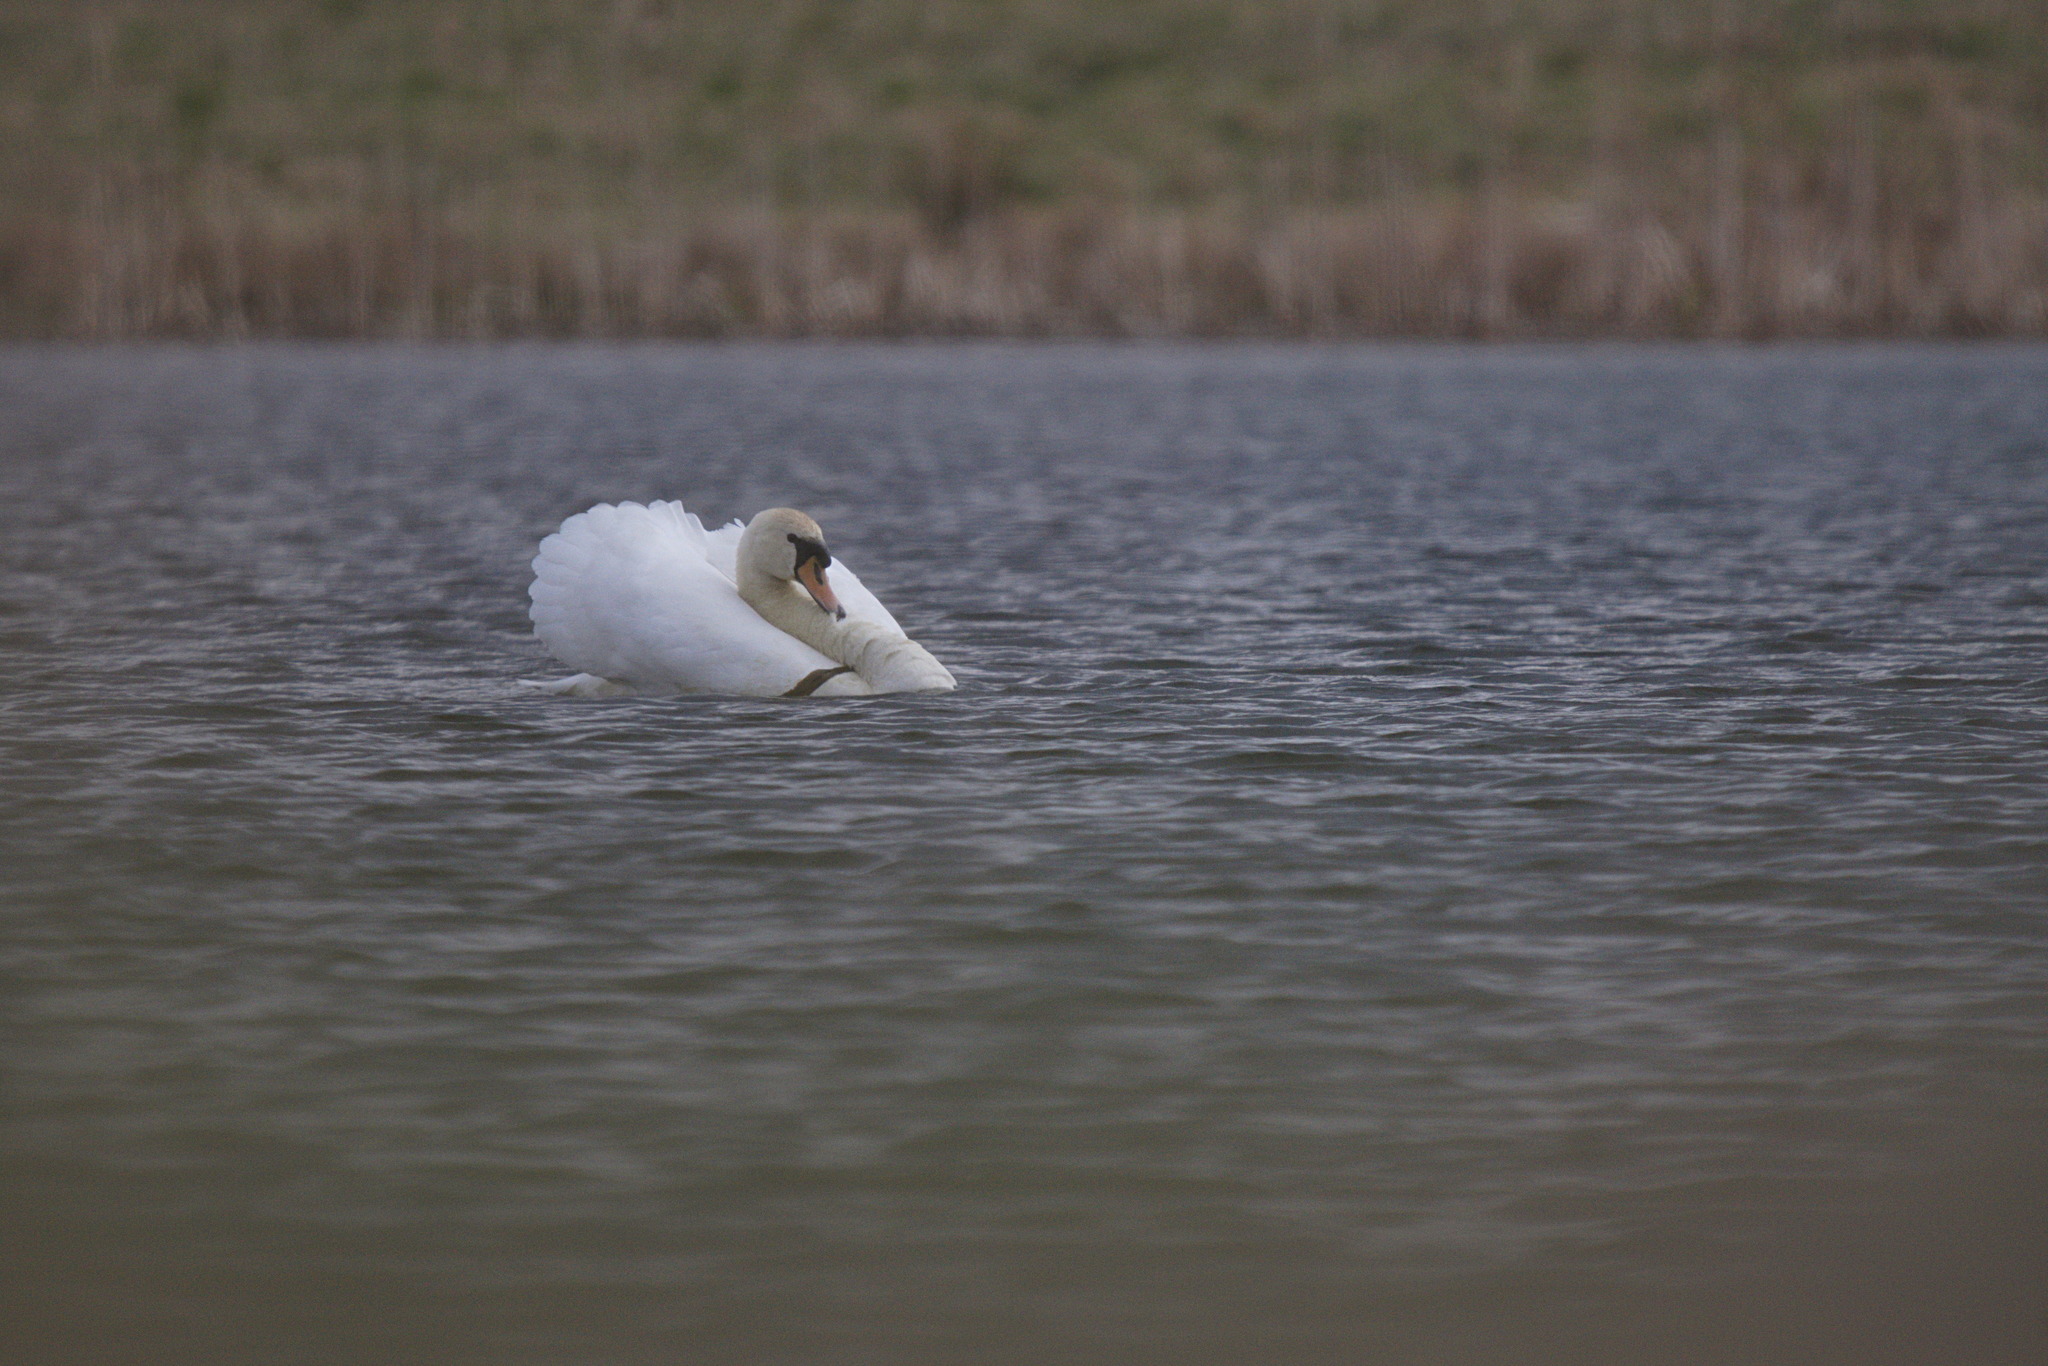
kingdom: Animalia
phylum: Chordata
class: Aves
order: Anseriformes
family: Anatidae
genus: Cygnus
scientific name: Cygnus olor
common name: Mute swan
